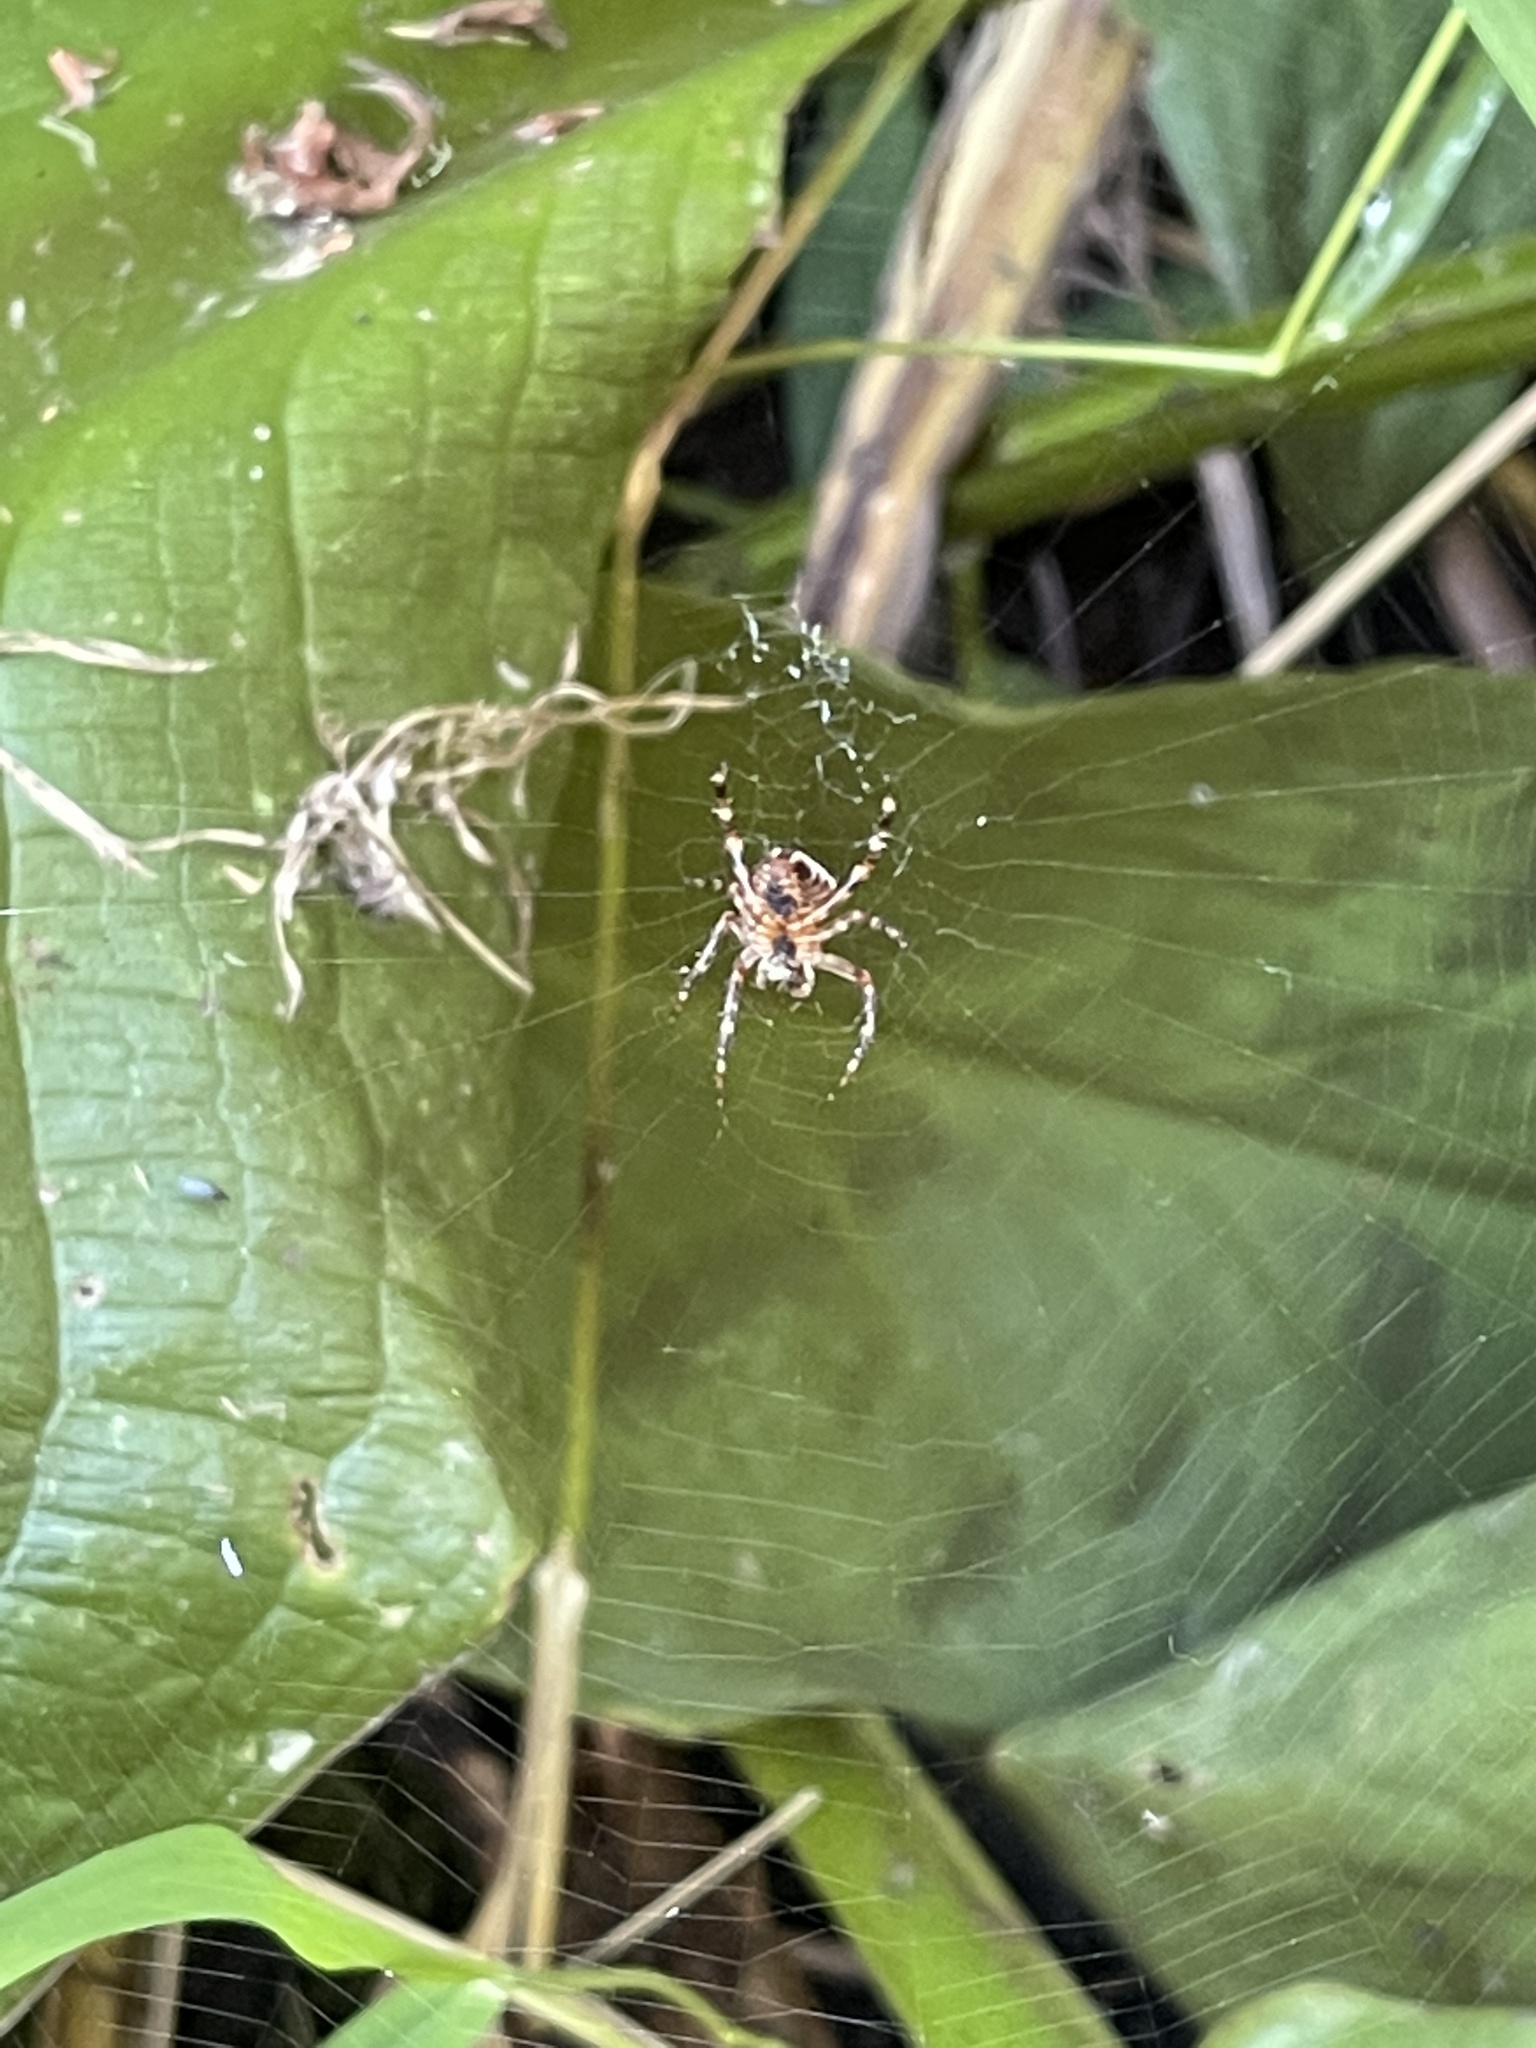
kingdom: Animalia
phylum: Arthropoda
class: Arachnida
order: Araneae
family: Araneidae
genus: Araneus
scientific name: Araneus diadematus
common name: Cross orbweaver
